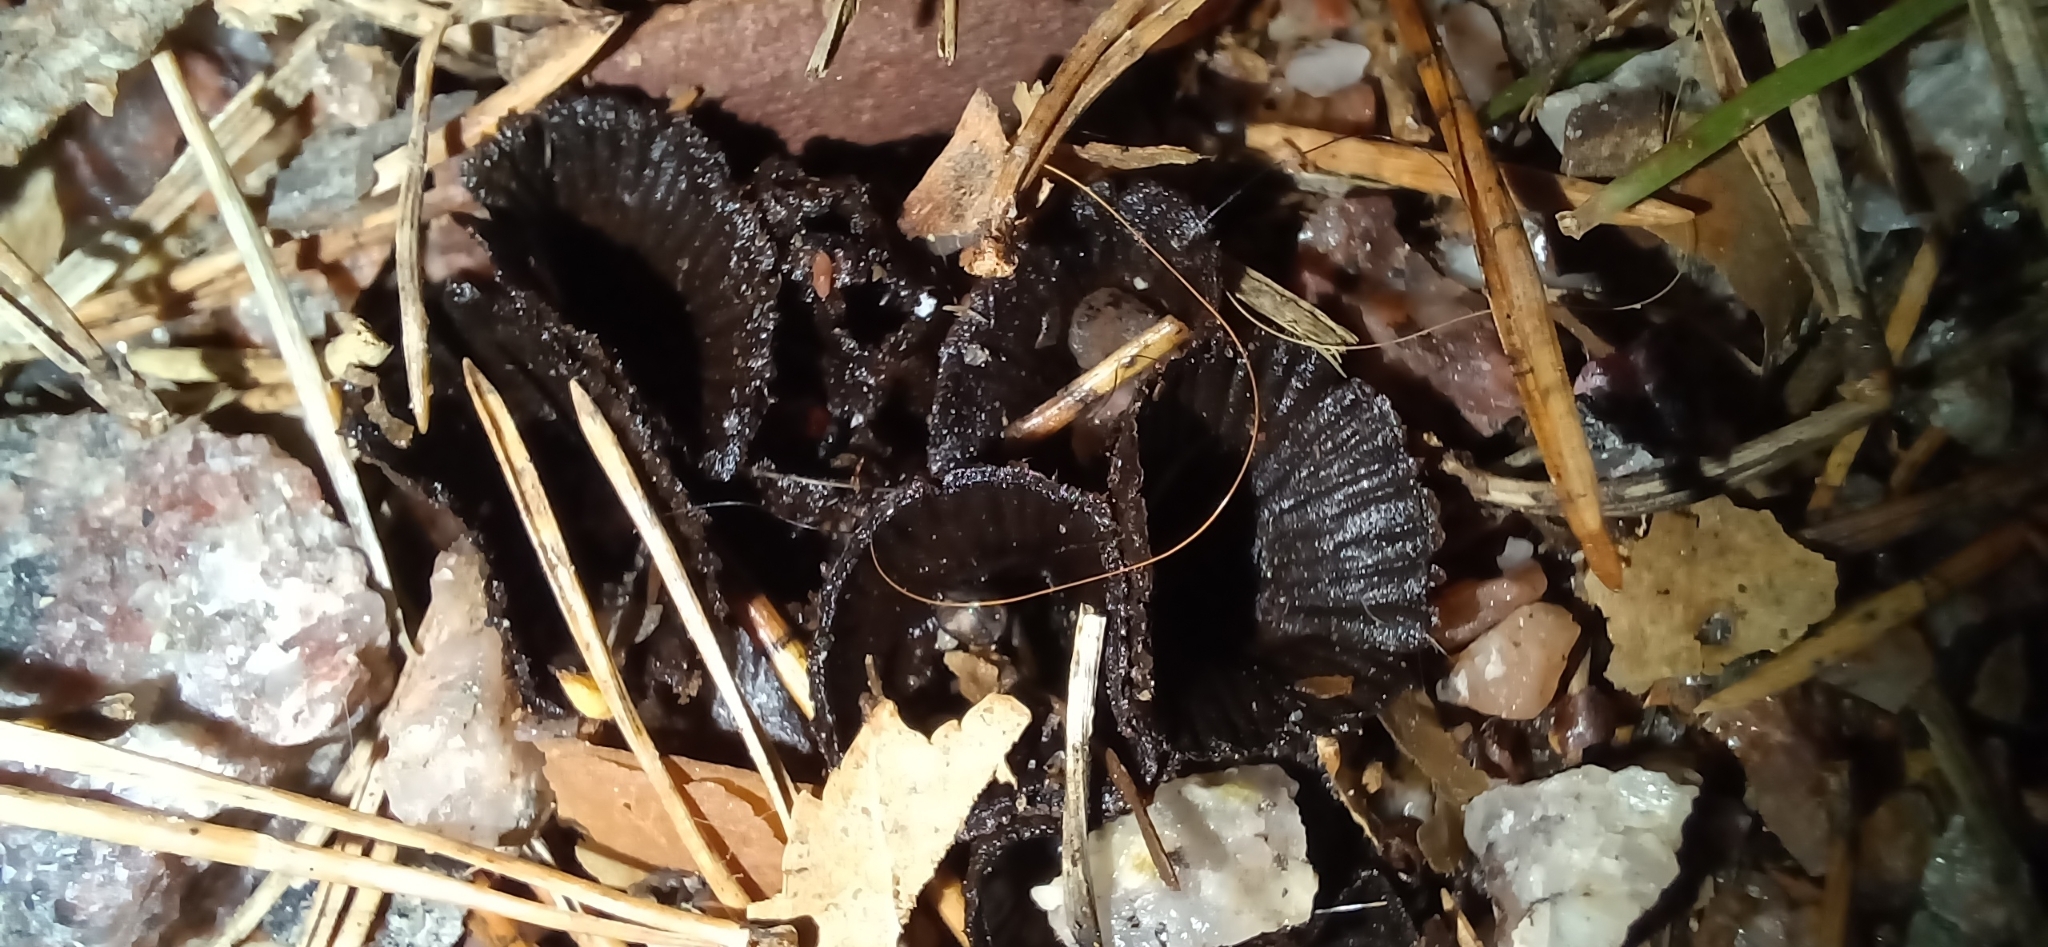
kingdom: Fungi
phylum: Basidiomycota
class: Agaricomycetes
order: Agaricales
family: Agaricaceae
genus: Cyathus
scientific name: Cyathus striatus
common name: Fluted bird's nest
